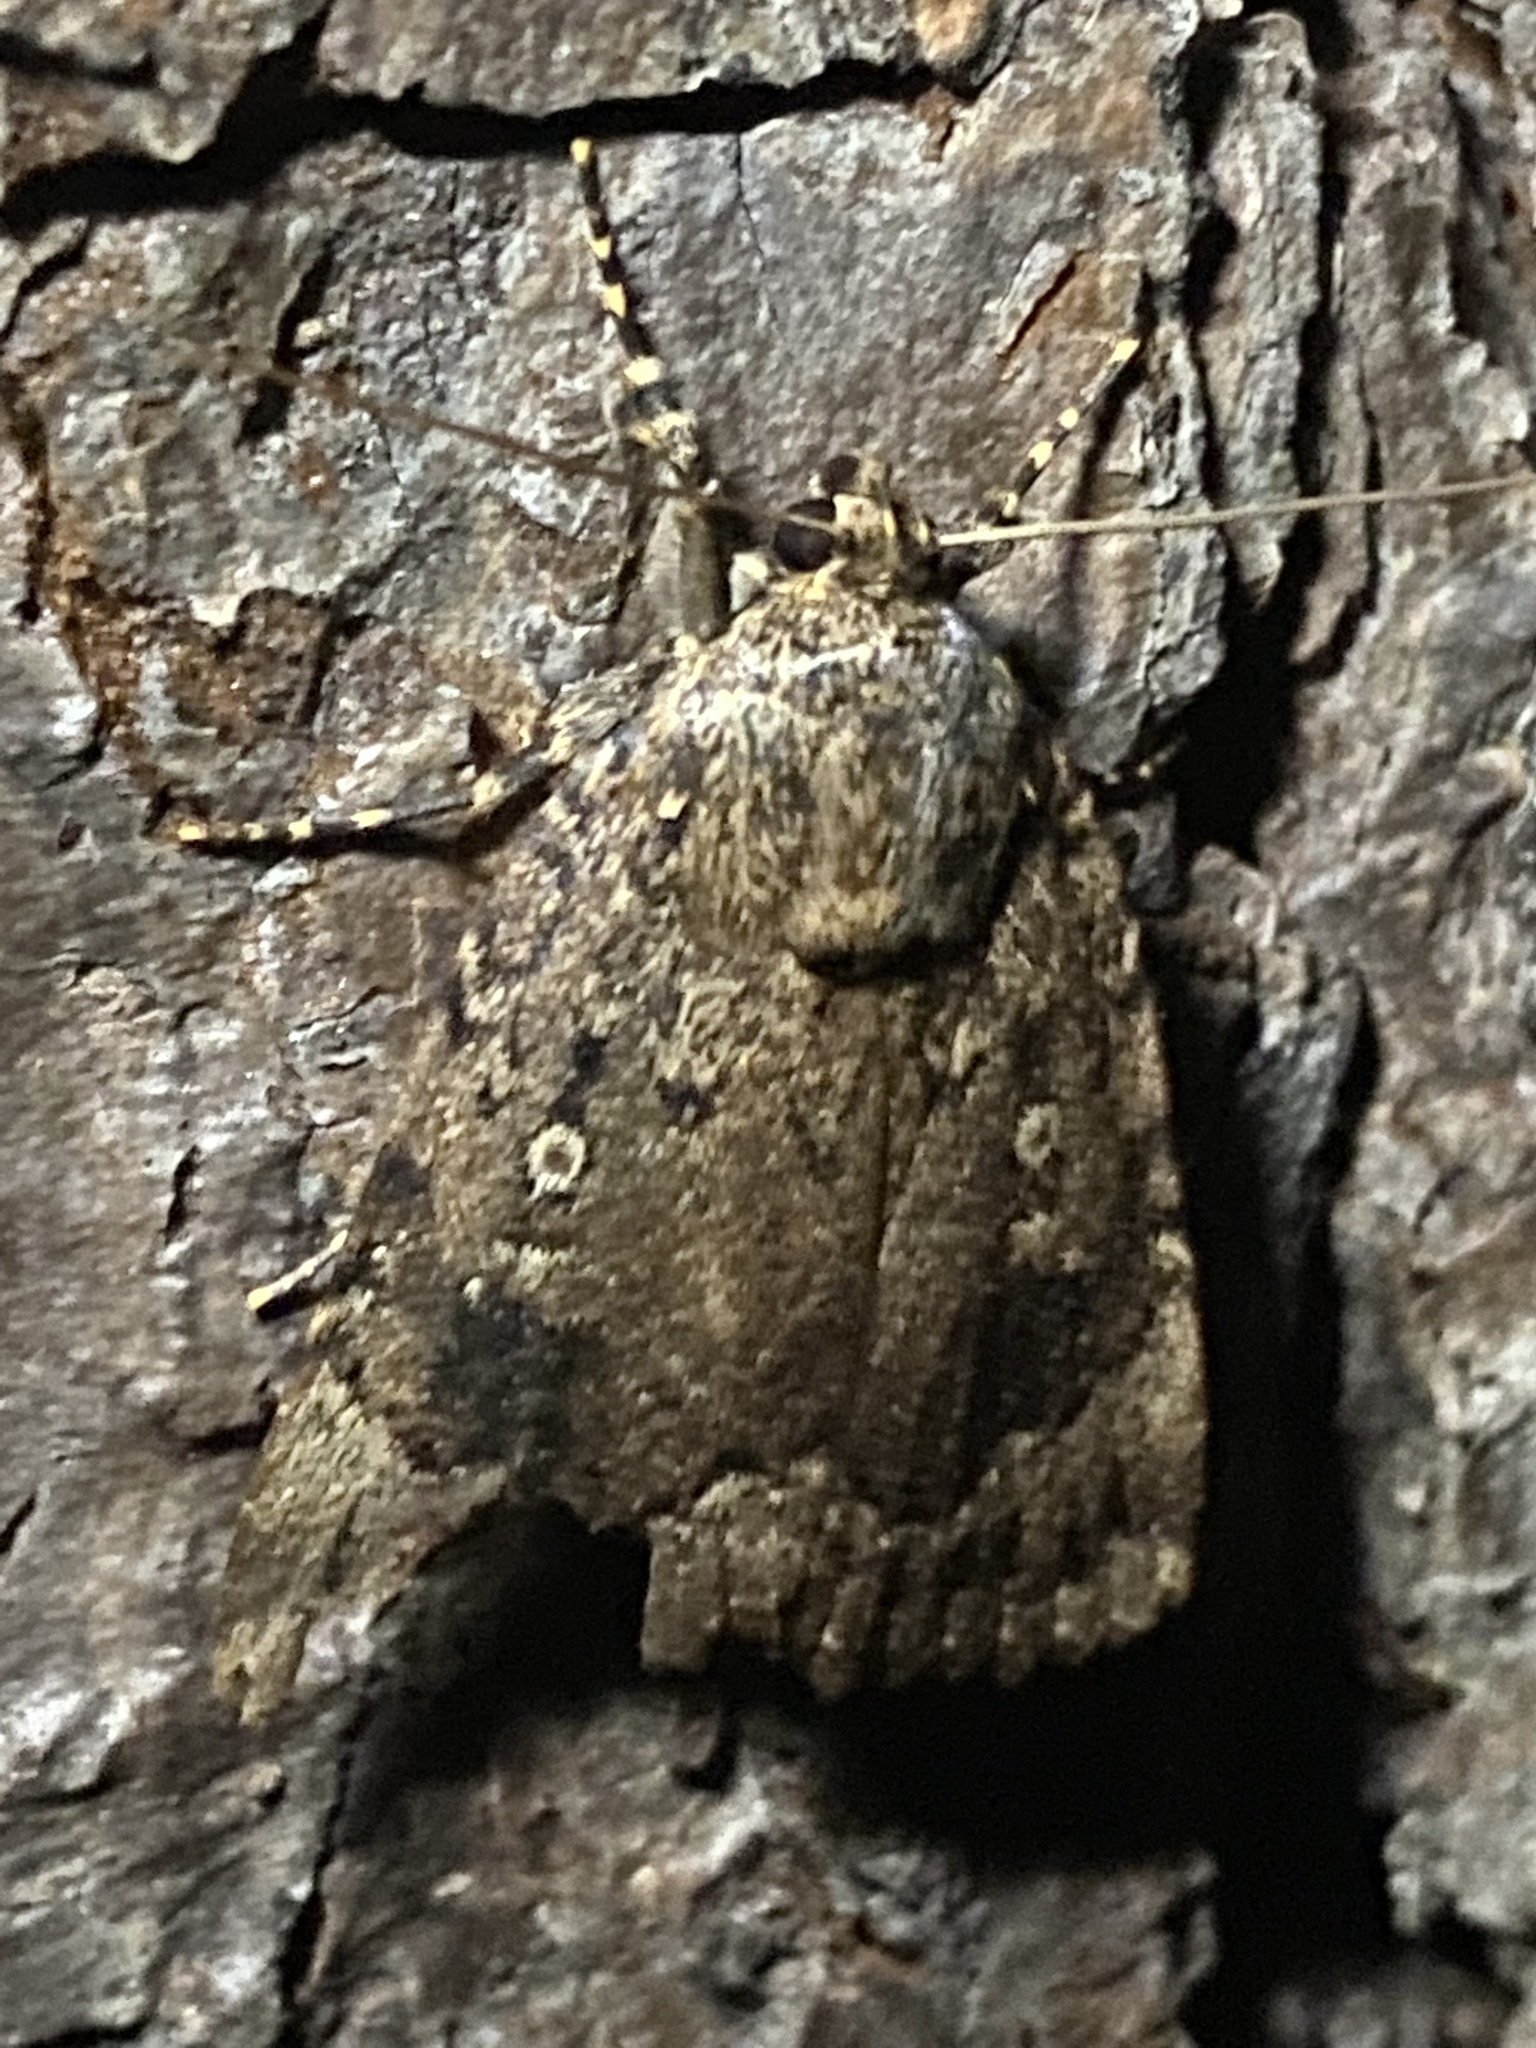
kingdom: Animalia
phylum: Arthropoda
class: Insecta
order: Lepidoptera
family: Noctuidae
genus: Amphipyra
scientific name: Amphipyra pyramidoides
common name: American copper underwing
